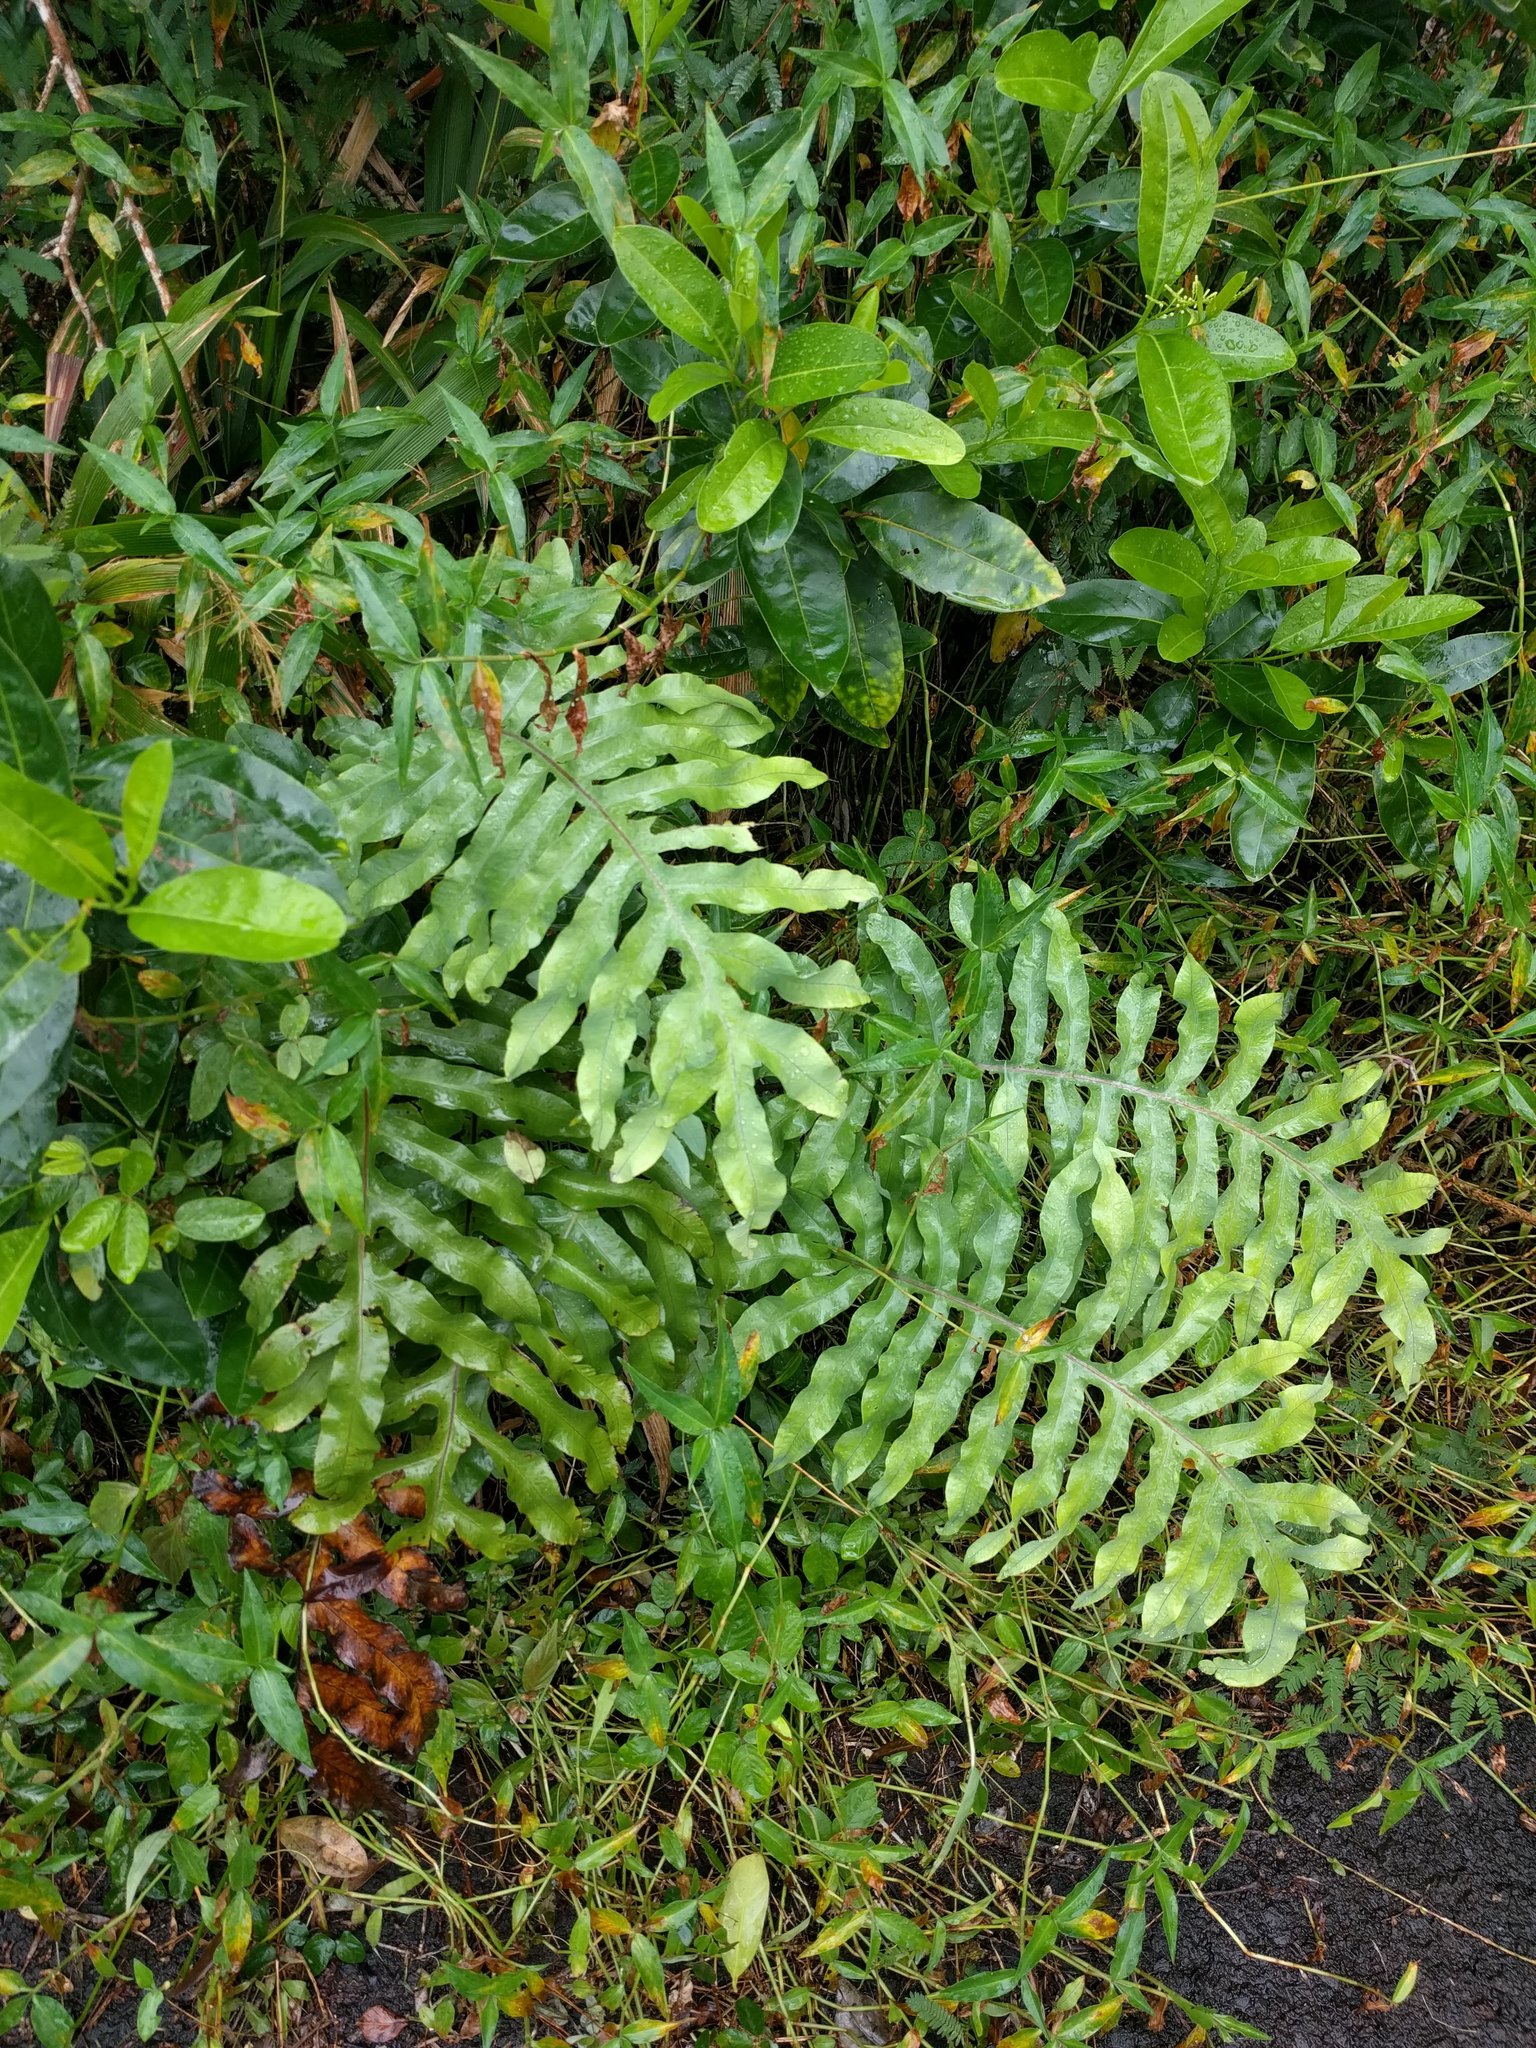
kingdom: Plantae
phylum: Tracheophyta
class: Polypodiopsida
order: Polypodiales
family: Polypodiaceae
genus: Phlebodium
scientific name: Phlebodium aureum
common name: Gold-foot fern
